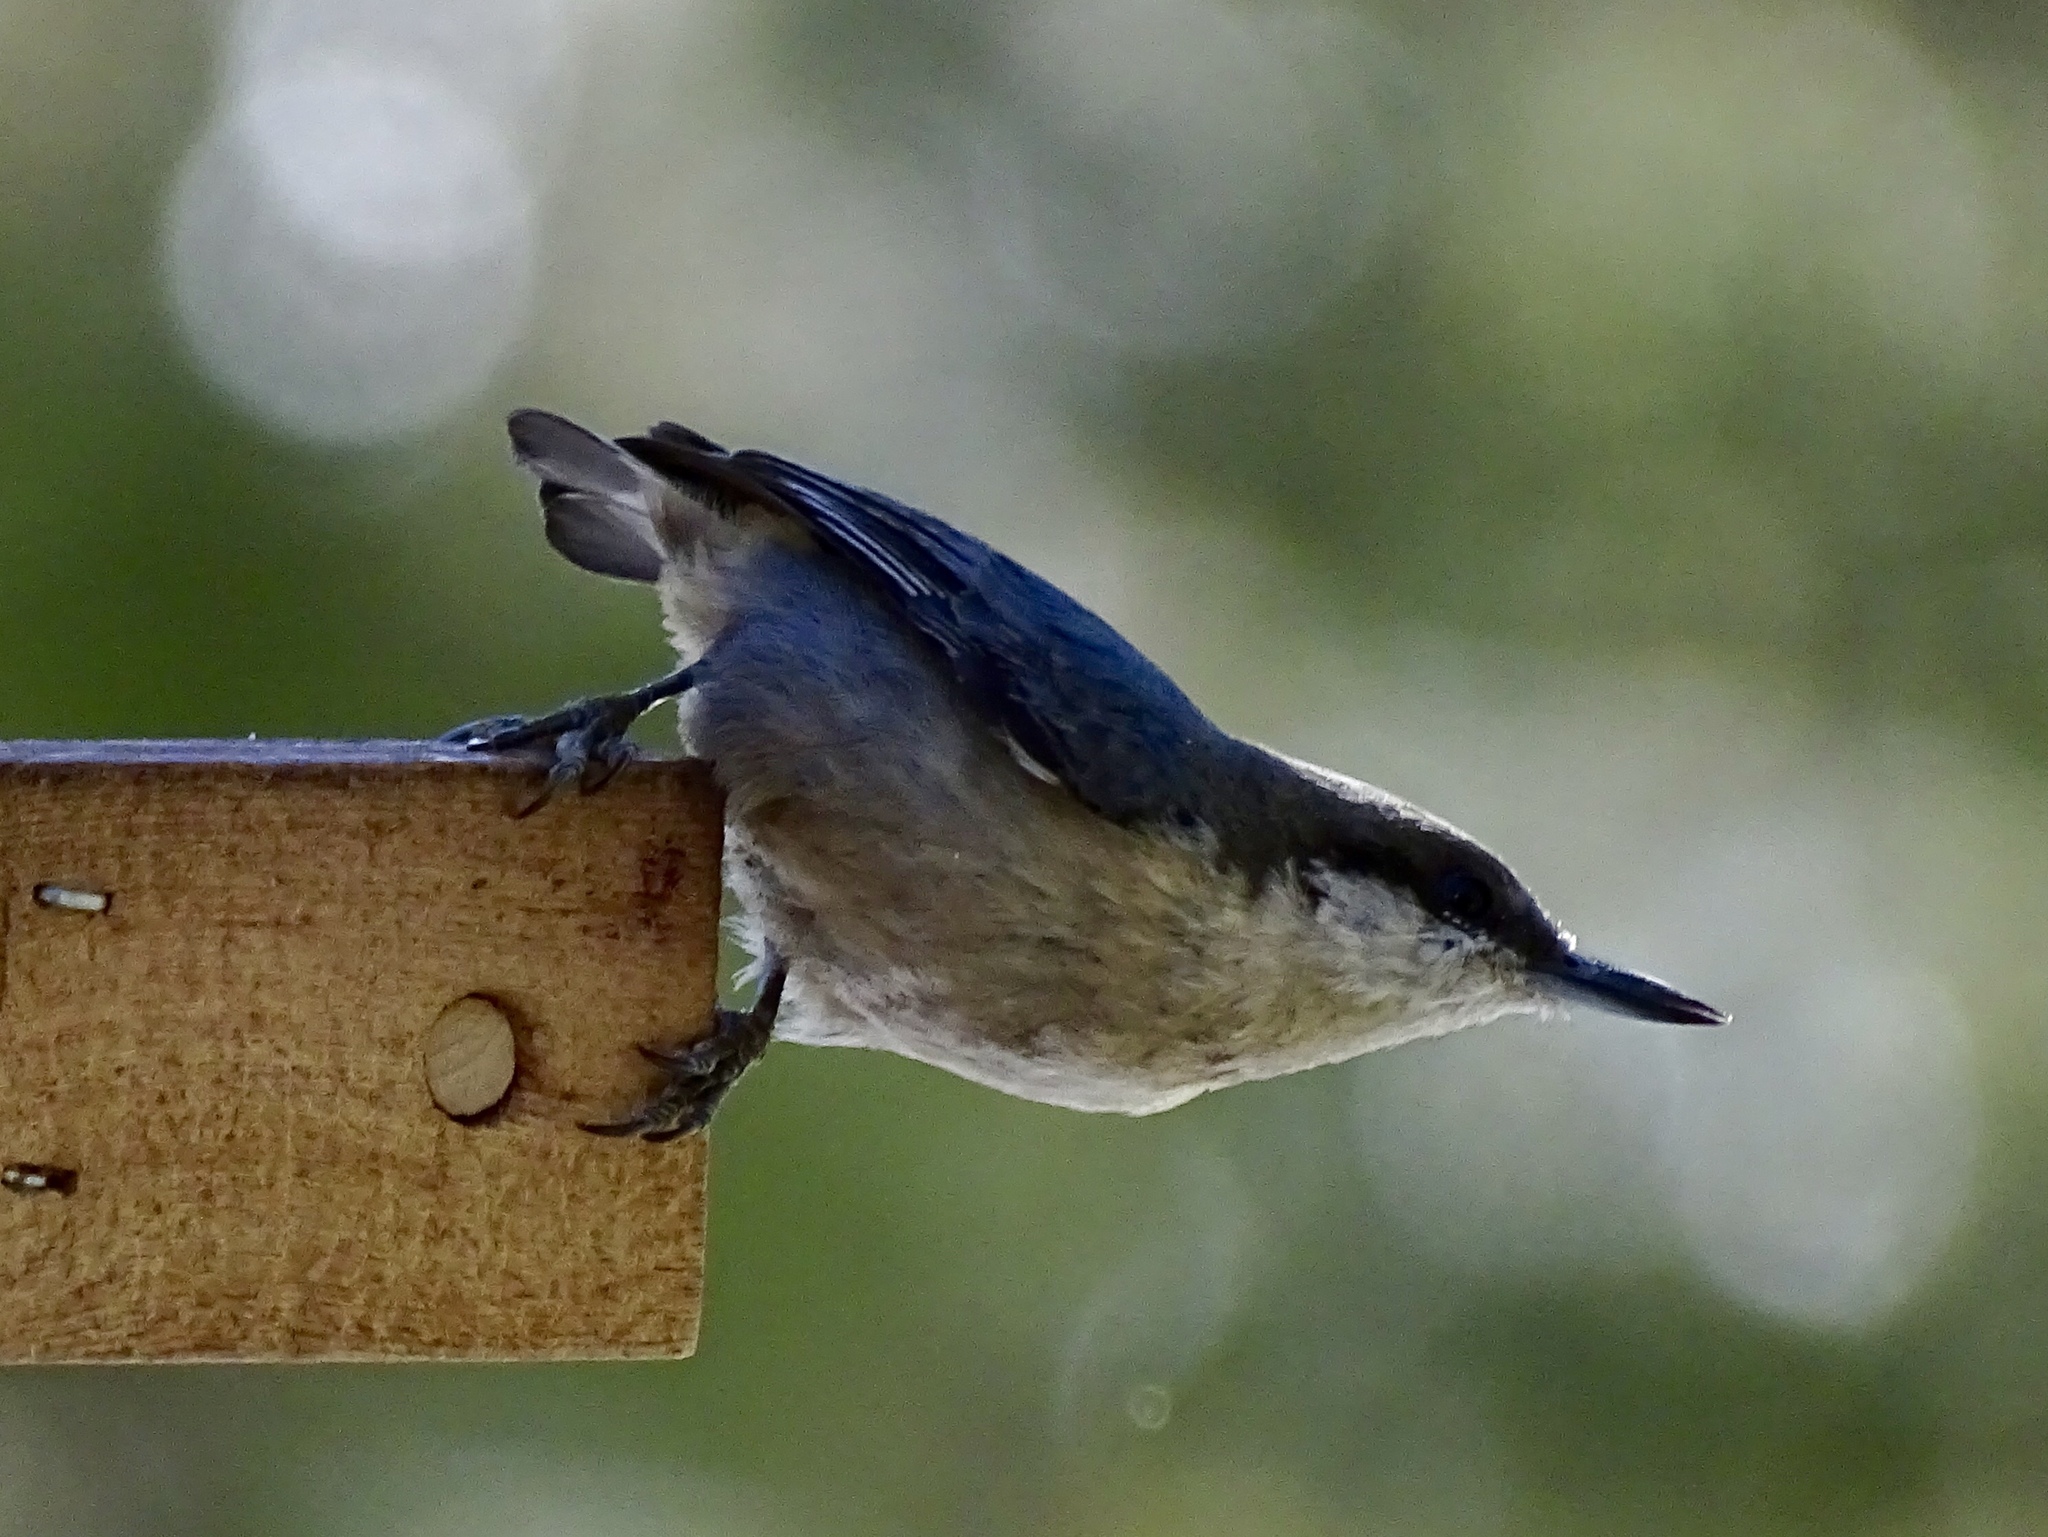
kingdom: Animalia
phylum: Chordata
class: Aves
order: Passeriformes
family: Sittidae
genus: Sitta
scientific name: Sitta pygmaea
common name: Pygmy nuthatch
